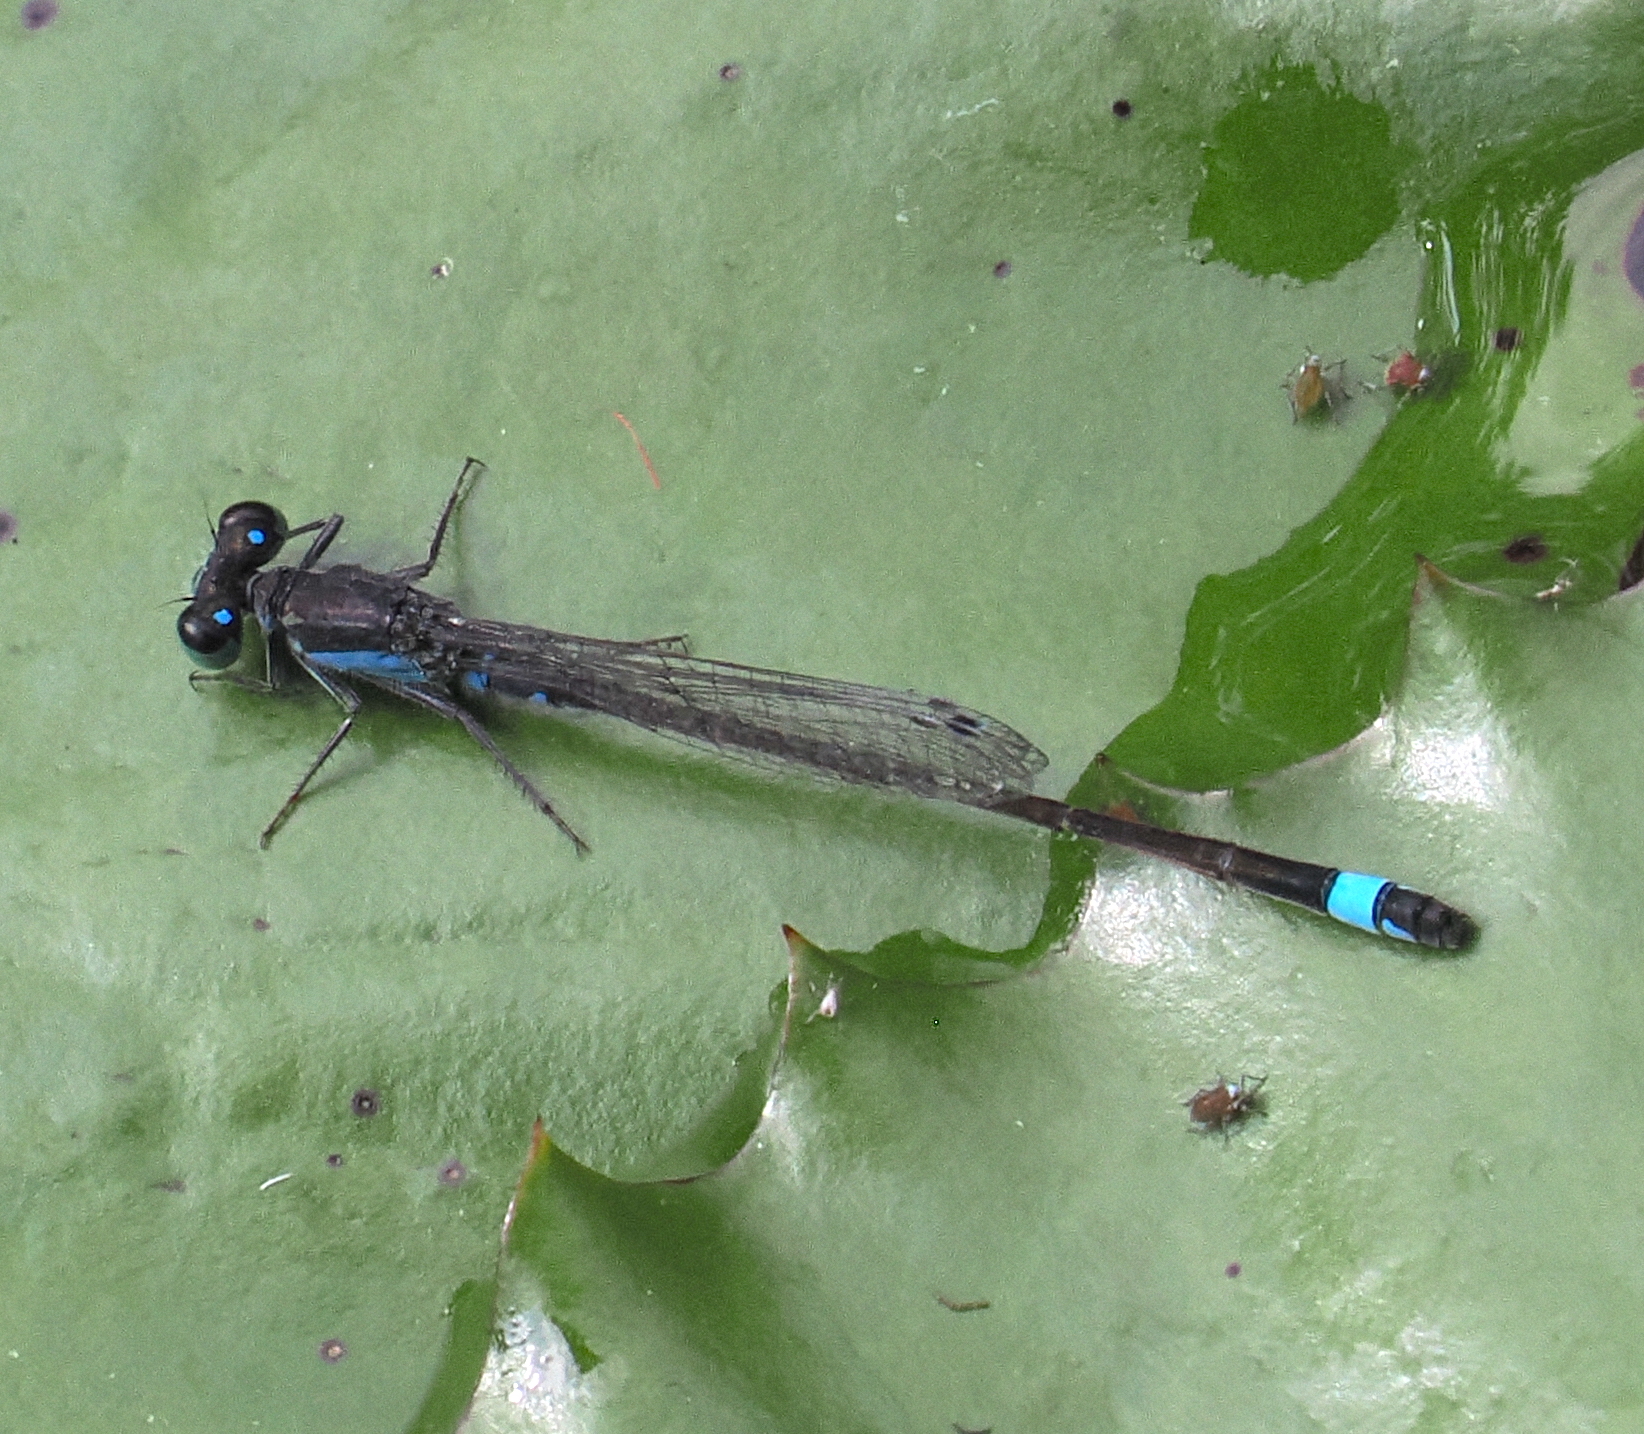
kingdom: Animalia
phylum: Arthropoda
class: Insecta
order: Odonata
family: Coenagrionidae
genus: Ischnura
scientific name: Ischnura senegalensis
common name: Tropical bluetail
